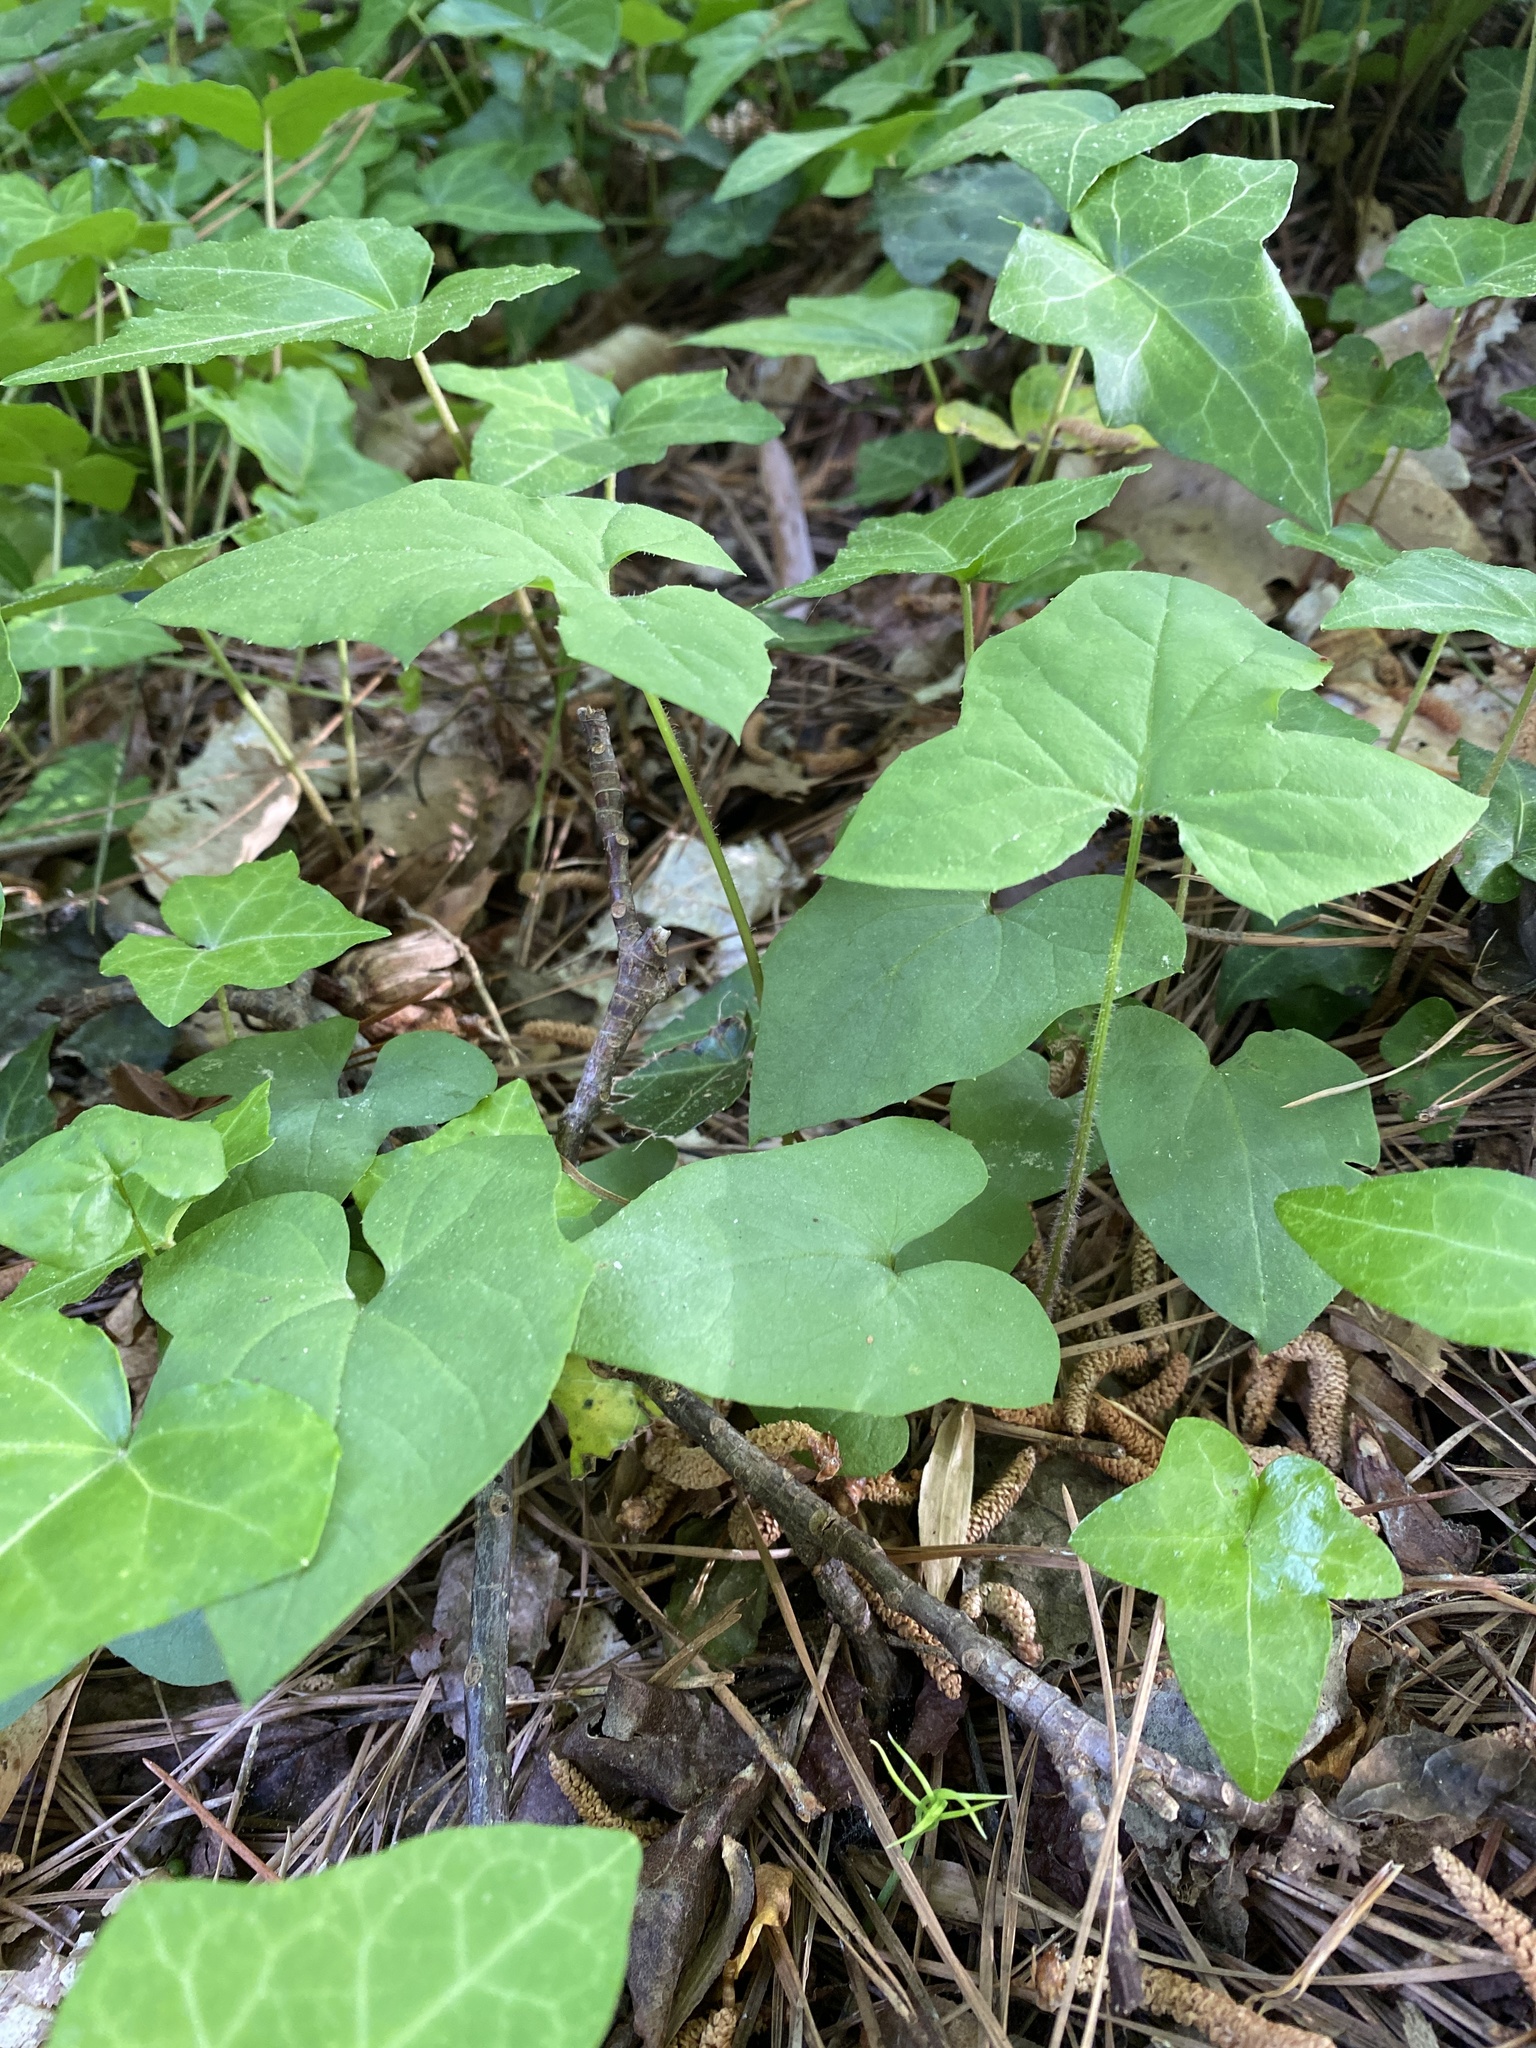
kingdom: Plantae
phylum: Tracheophyta
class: Magnoliopsida
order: Asterales
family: Asteraceae
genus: Nabalus
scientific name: Nabalus albus
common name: White rattlesnakeroot
